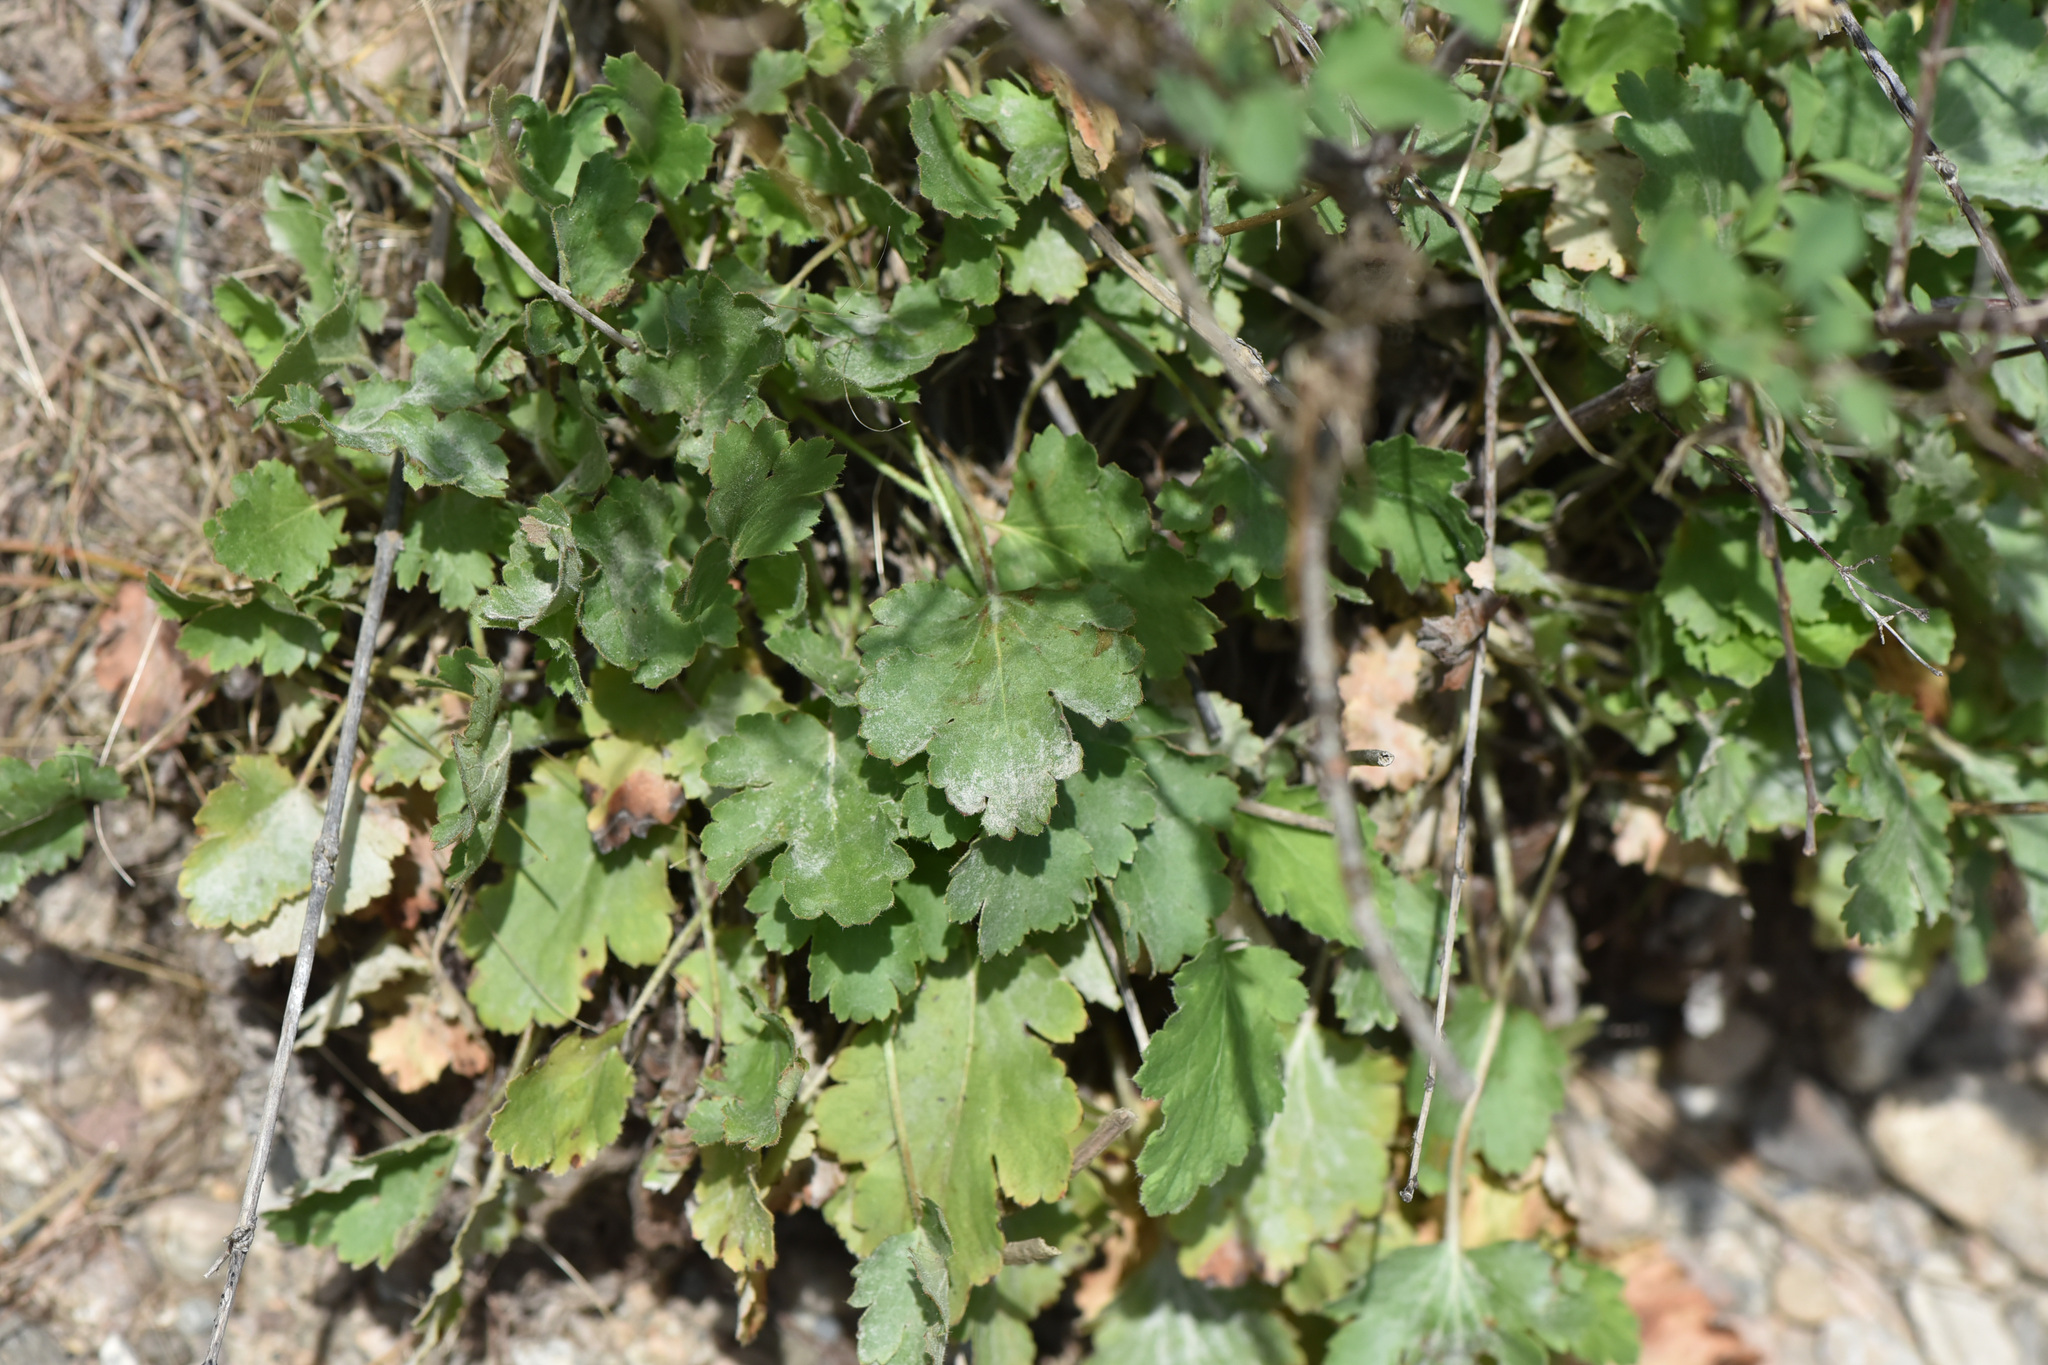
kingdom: Plantae
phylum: Tracheophyta
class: Magnoliopsida
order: Saxifragales
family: Saxifragaceae
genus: Heuchera
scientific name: Heuchera cylindrica
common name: Mat alumroot
